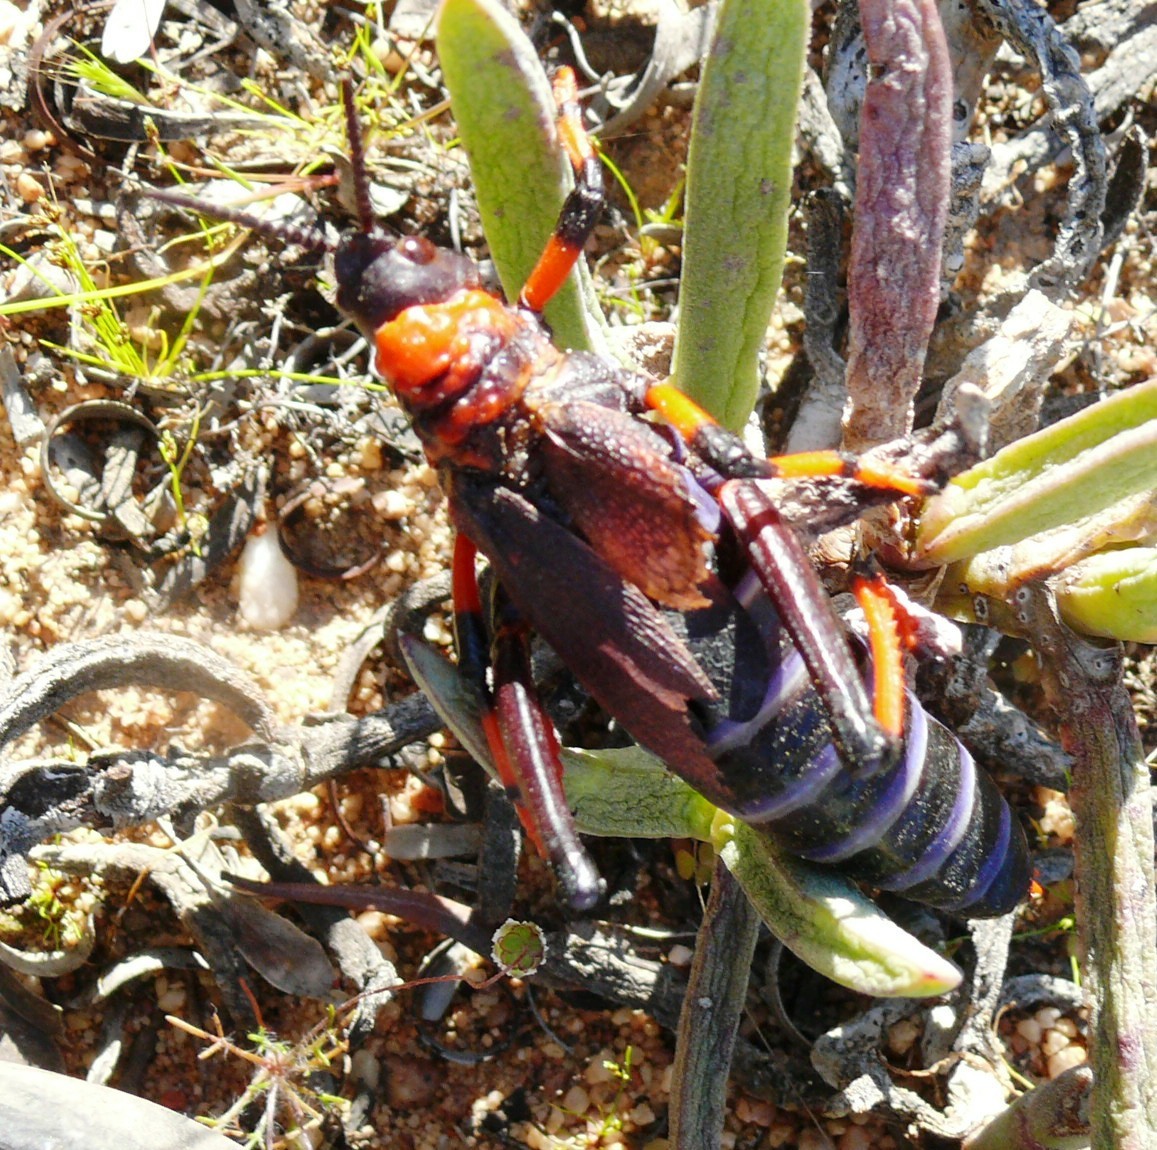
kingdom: Animalia
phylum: Arthropoda
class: Insecta
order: Orthoptera
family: Pyrgomorphidae
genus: Dictyophorus
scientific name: Dictyophorus spumans
